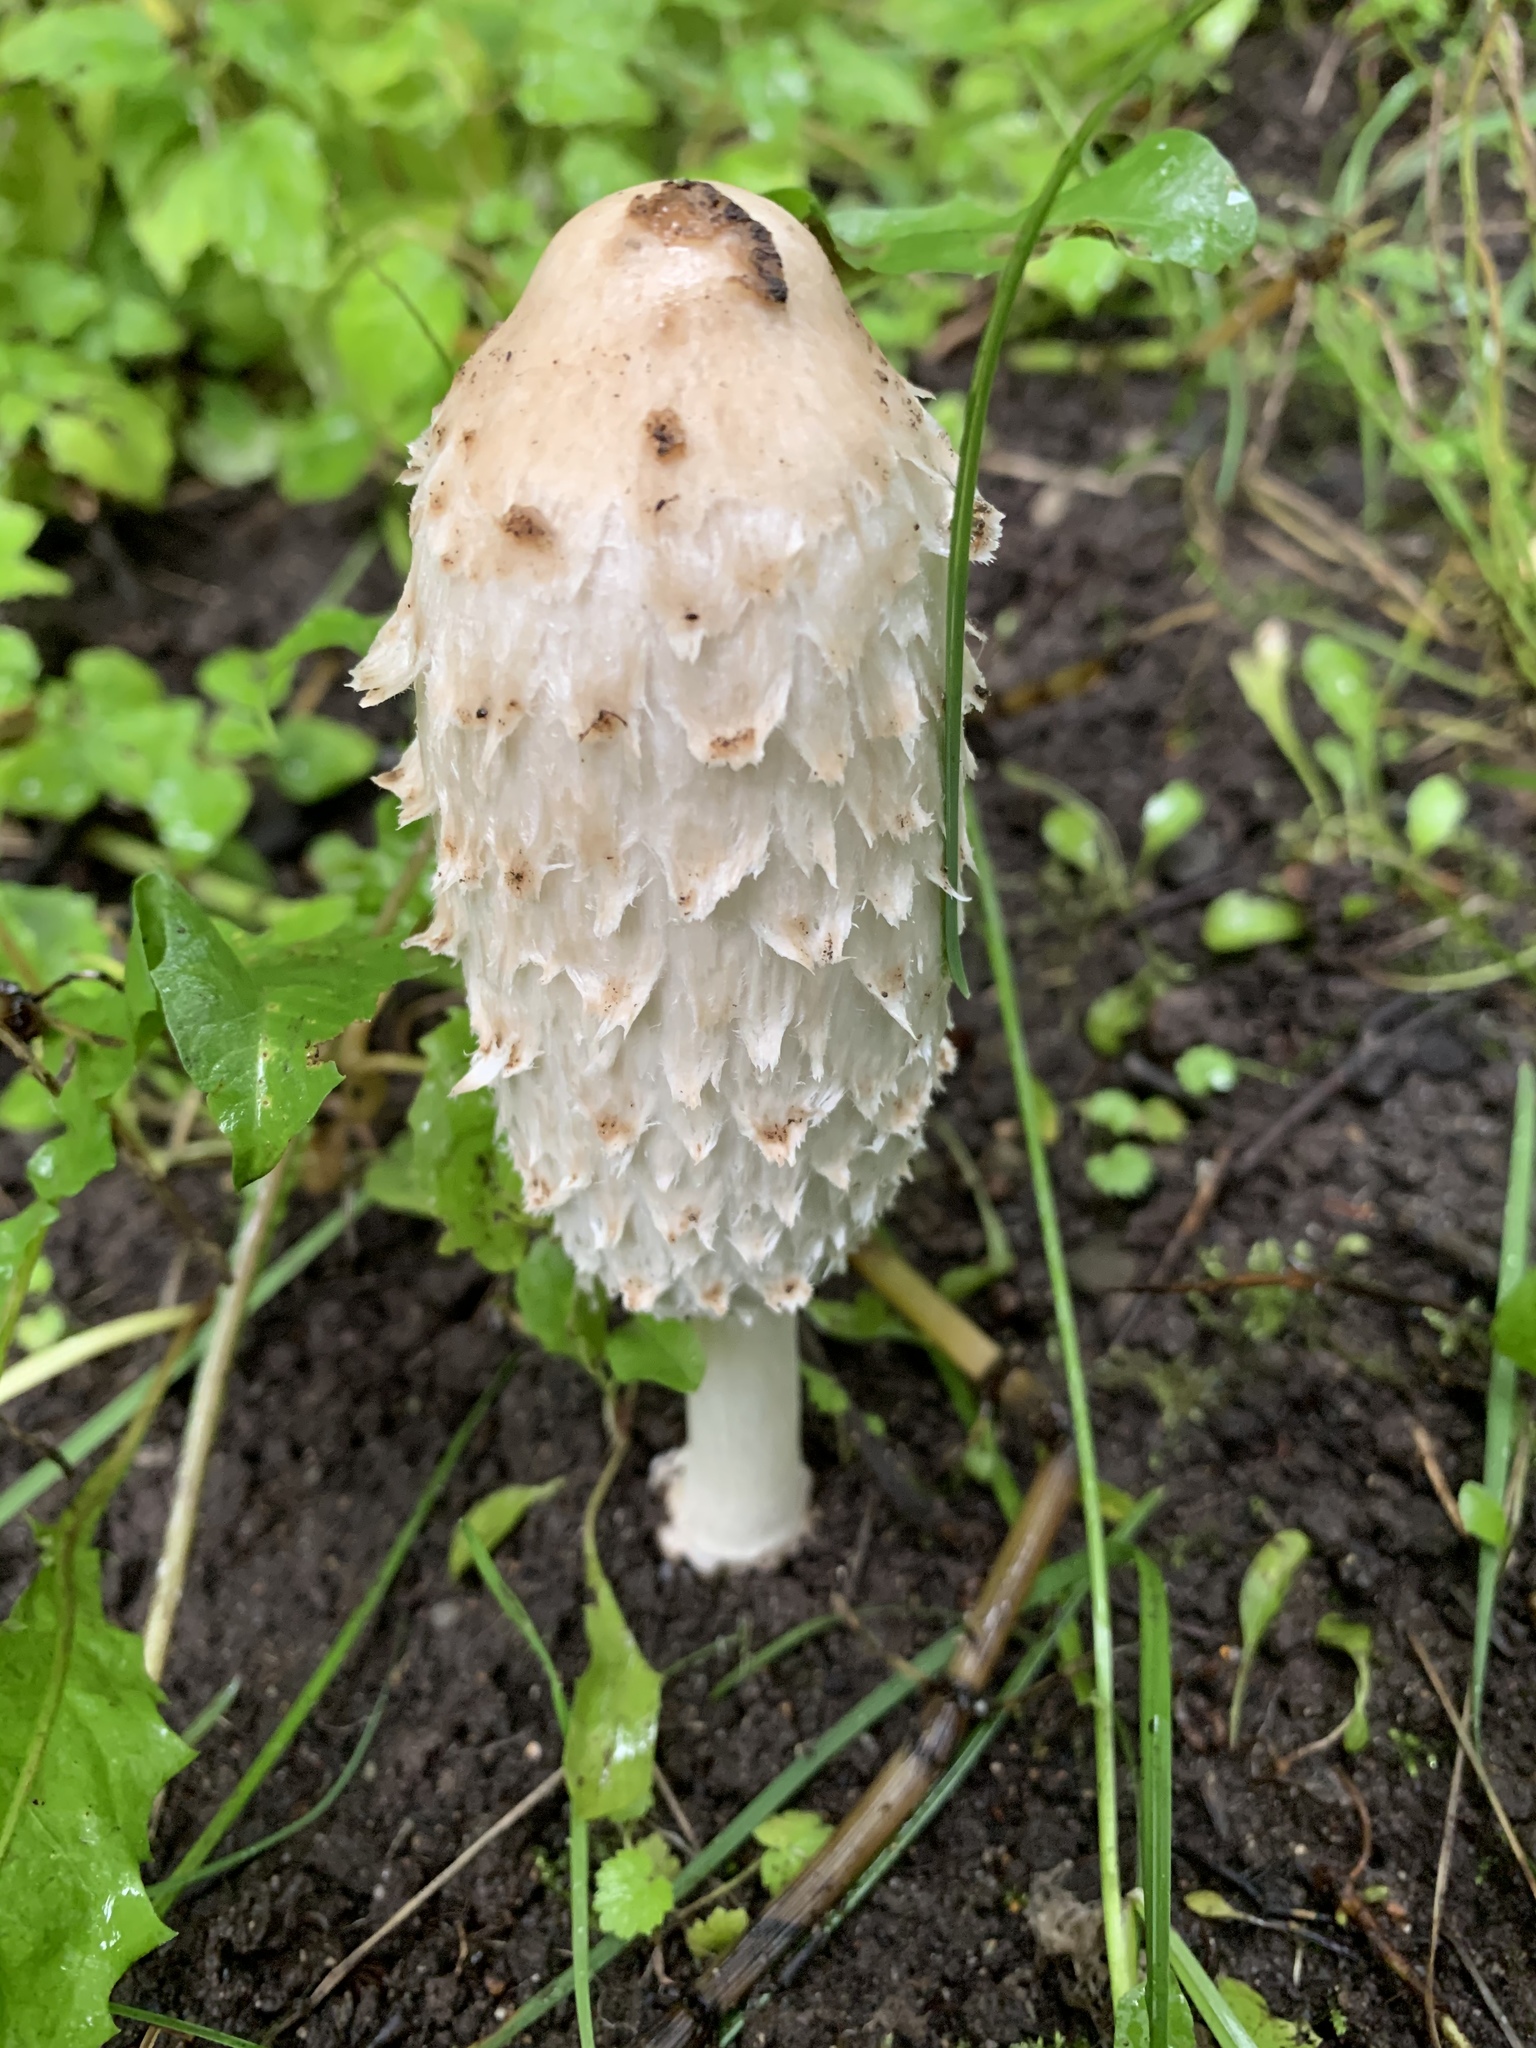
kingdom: Fungi
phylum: Basidiomycota
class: Agaricomycetes
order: Agaricales
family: Agaricaceae
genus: Coprinus
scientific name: Coprinus comatus
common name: Lawyer's wig
